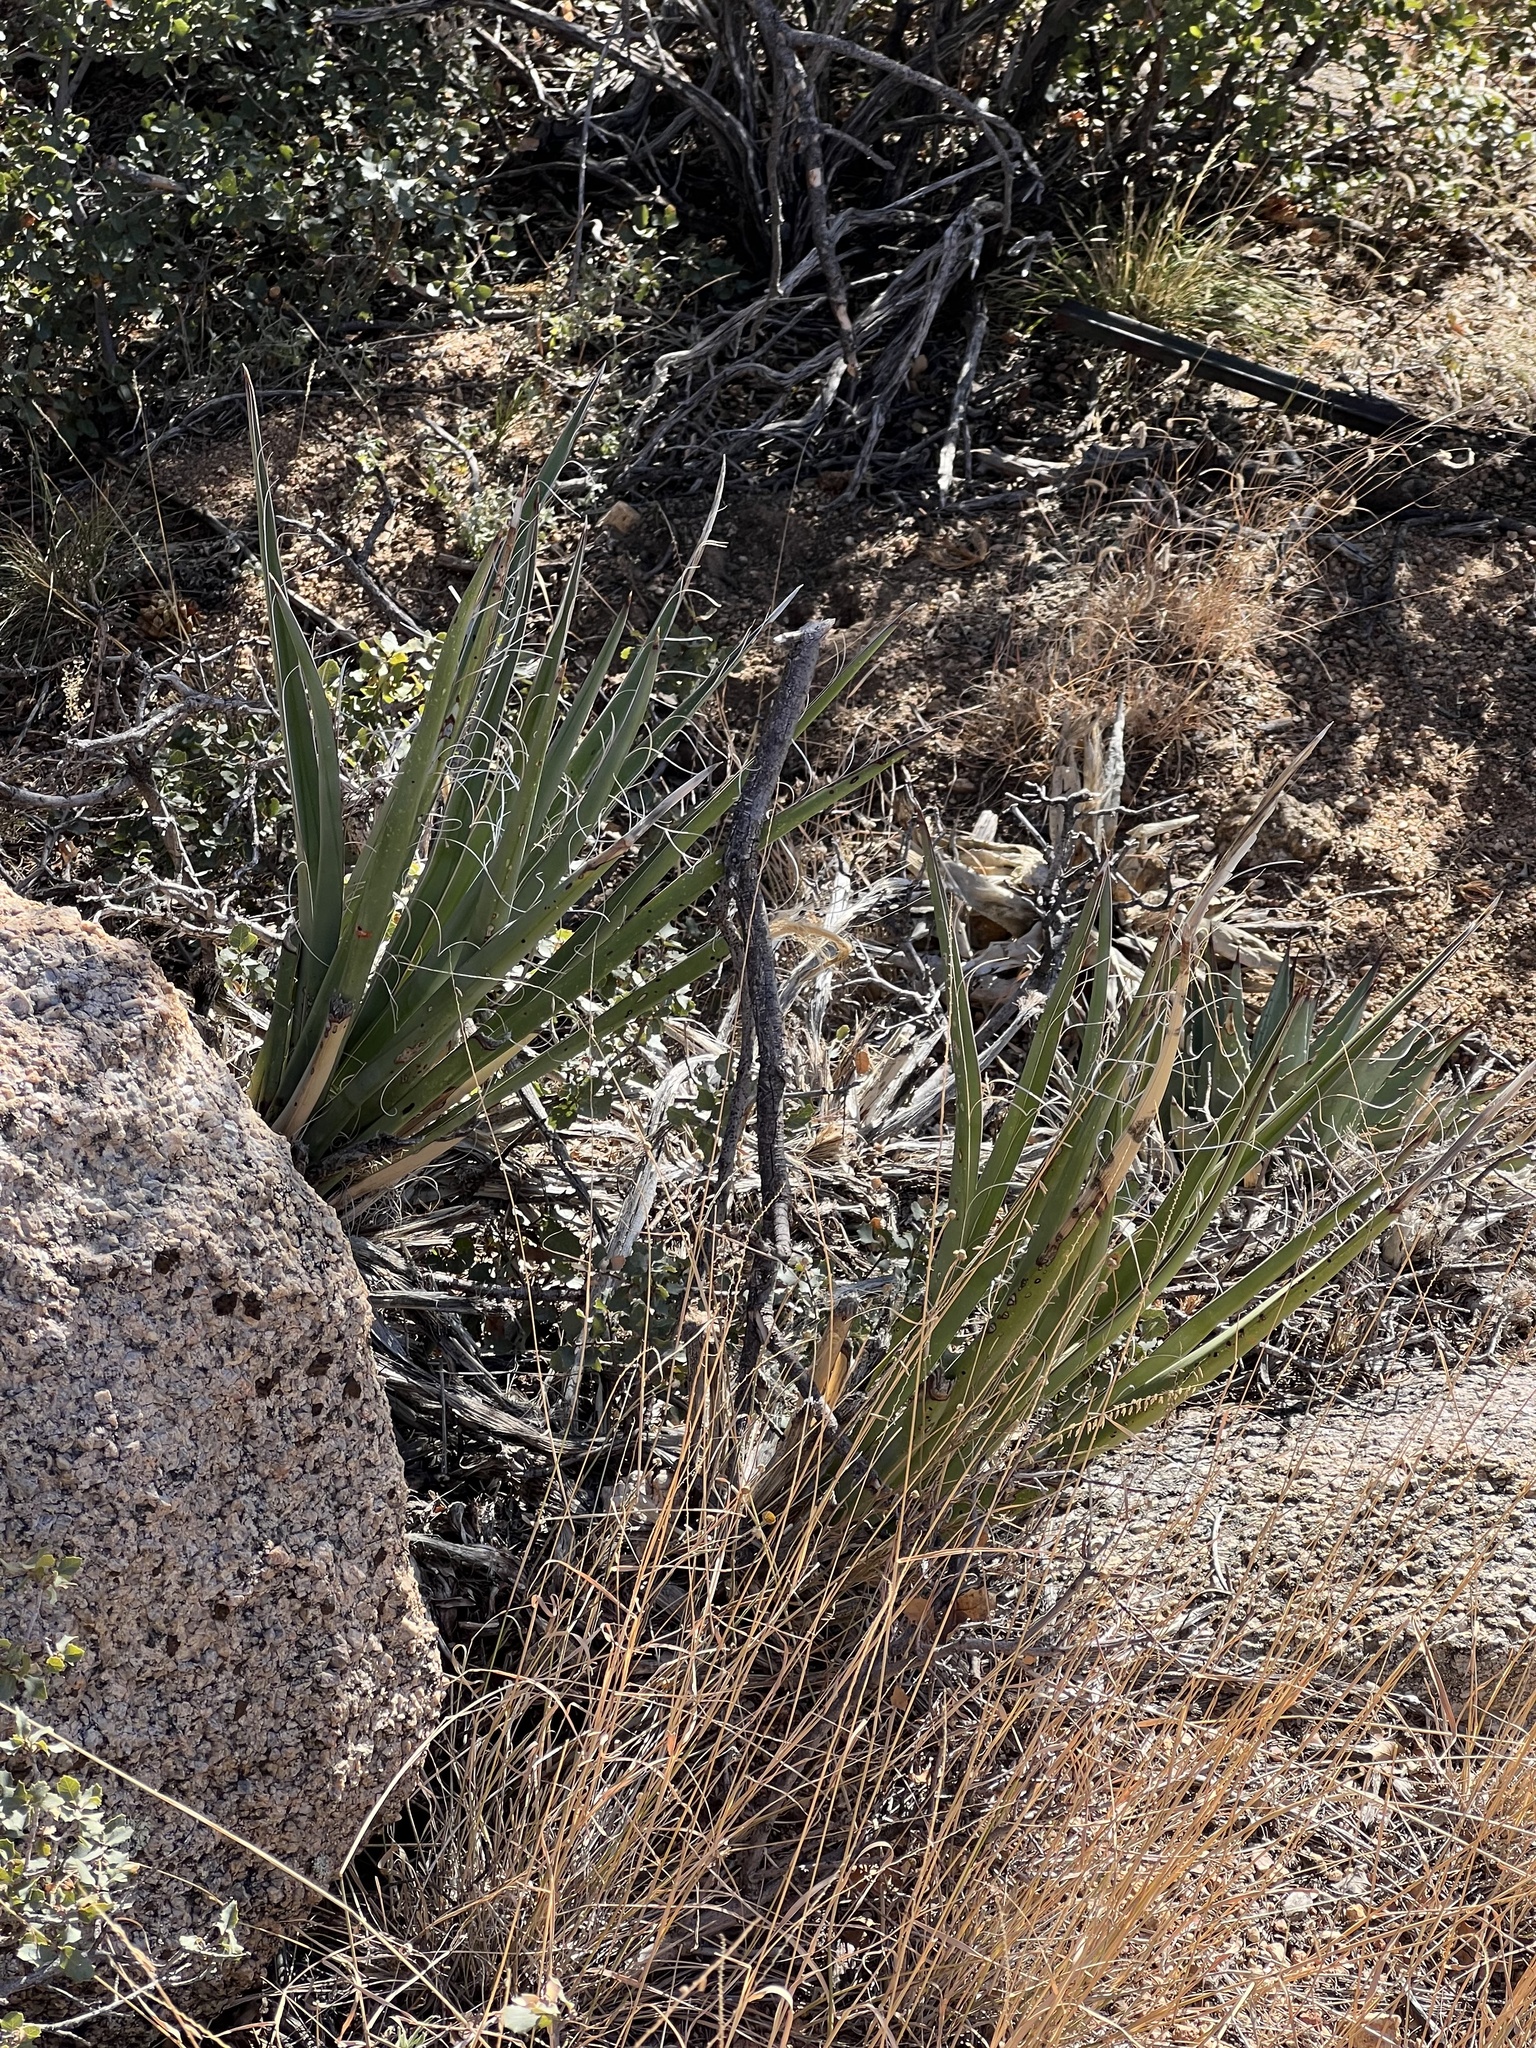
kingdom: Plantae
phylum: Tracheophyta
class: Liliopsida
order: Asparagales
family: Asparagaceae
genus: Yucca
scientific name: Yucca baccata
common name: Banana yucca
